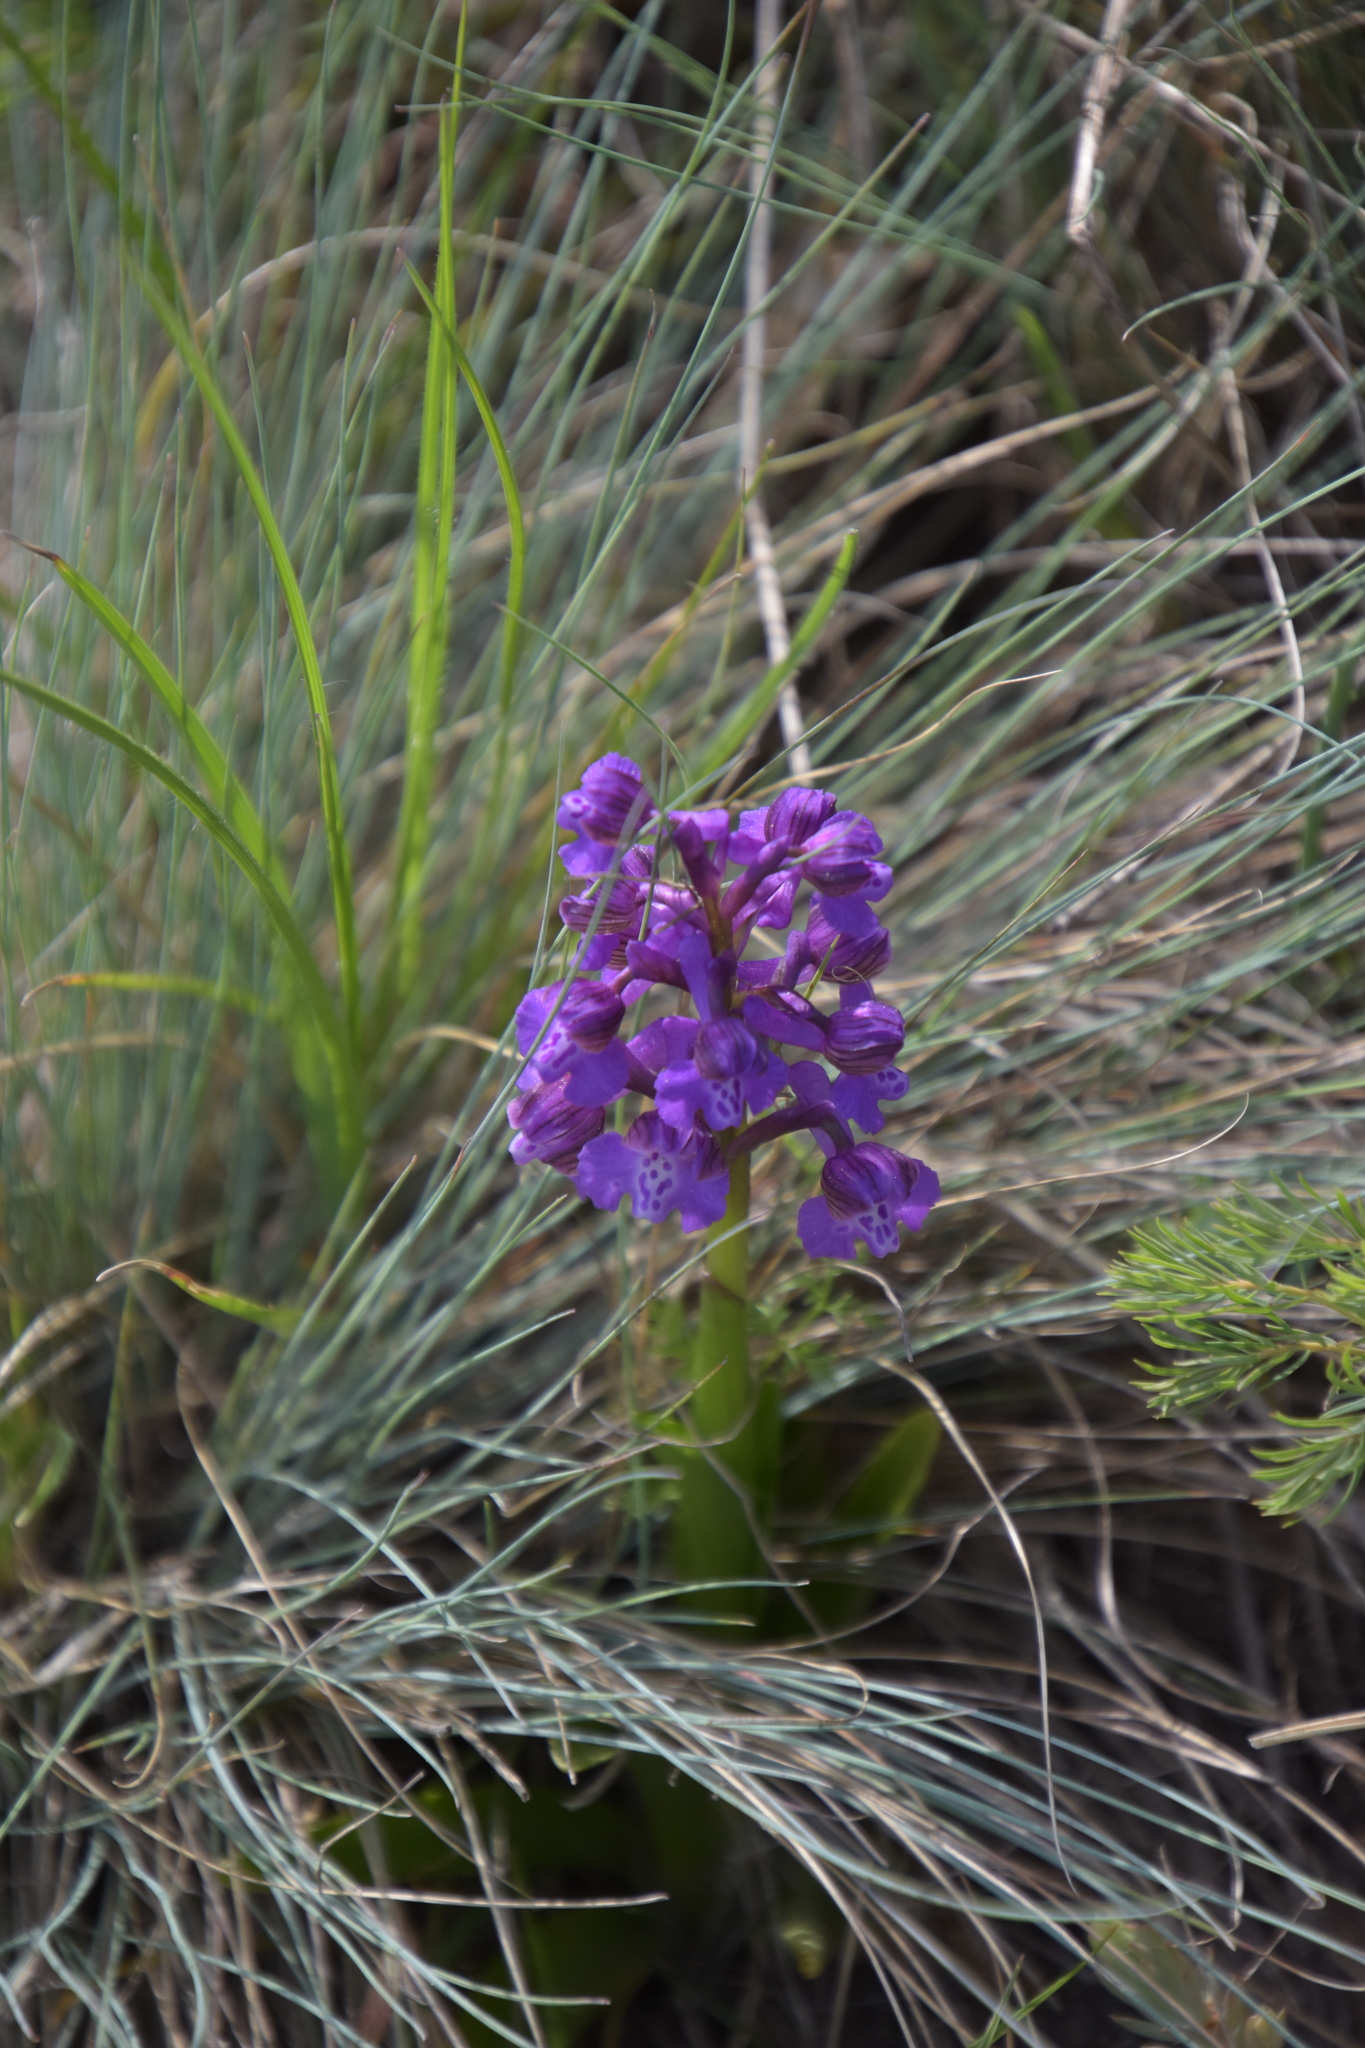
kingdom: Plantae
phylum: Tracheophyta
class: Liliopsida
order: Asparagales
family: Orchidaceae
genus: Anacamptis
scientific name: Anacamptis morio
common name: Green-winged orchid
